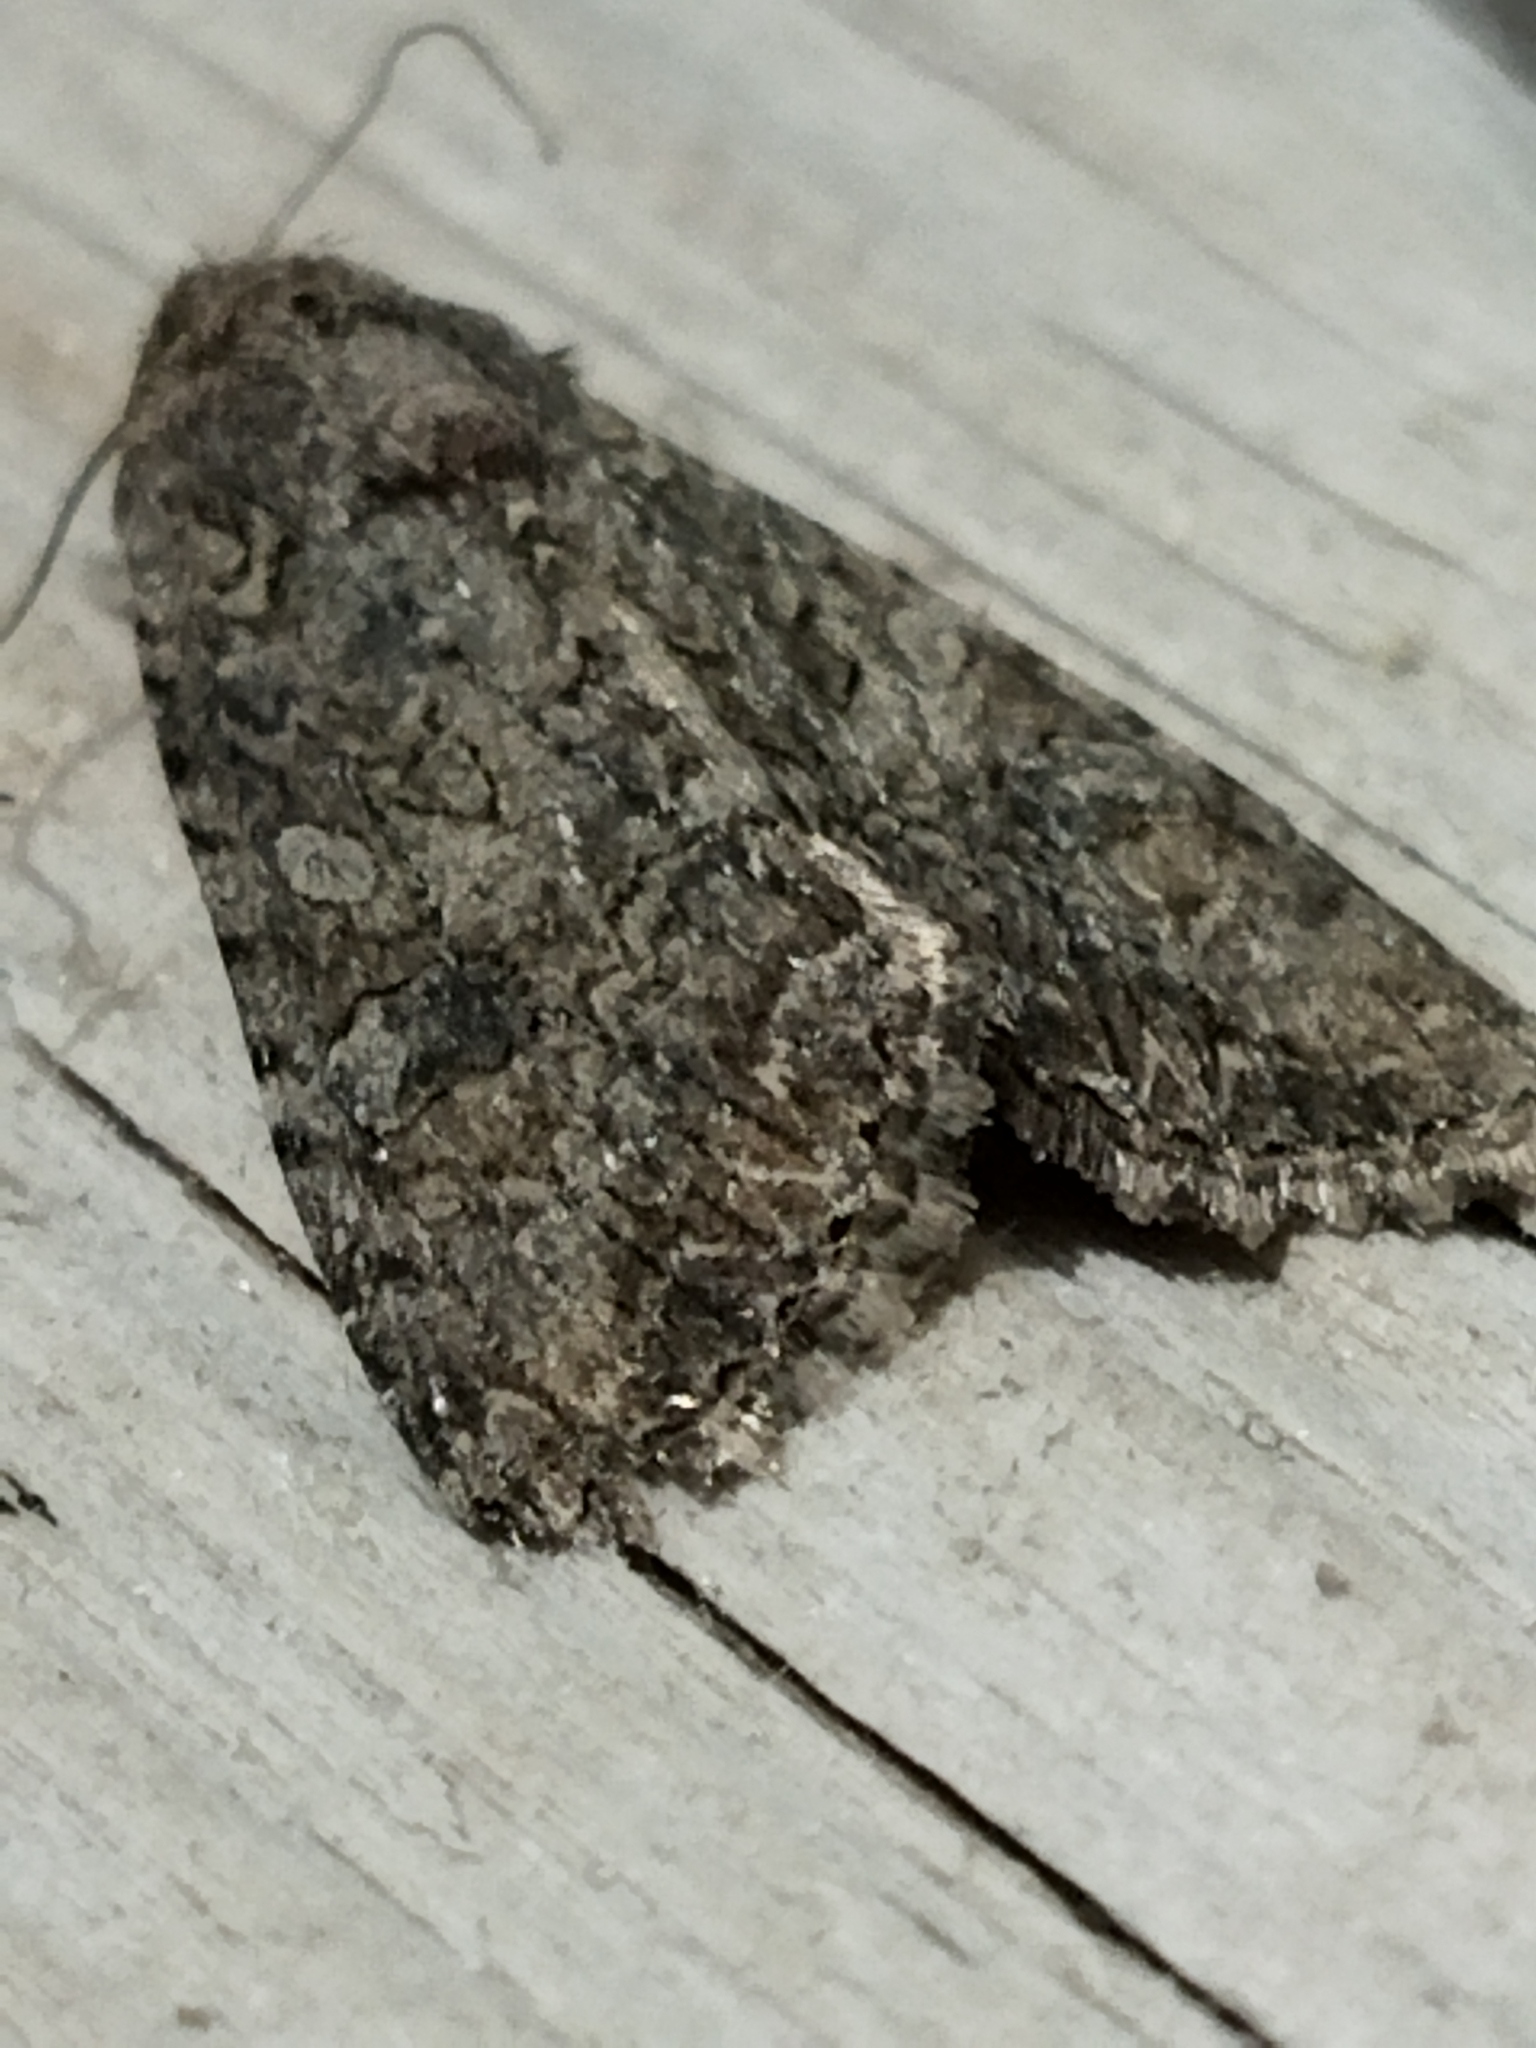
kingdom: Animalia
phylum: Arthropoda
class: Insecta
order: Lepidoptera
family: Noctuidae
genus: Anarta
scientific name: Anarta trifolii
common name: Clover cutworm moth
